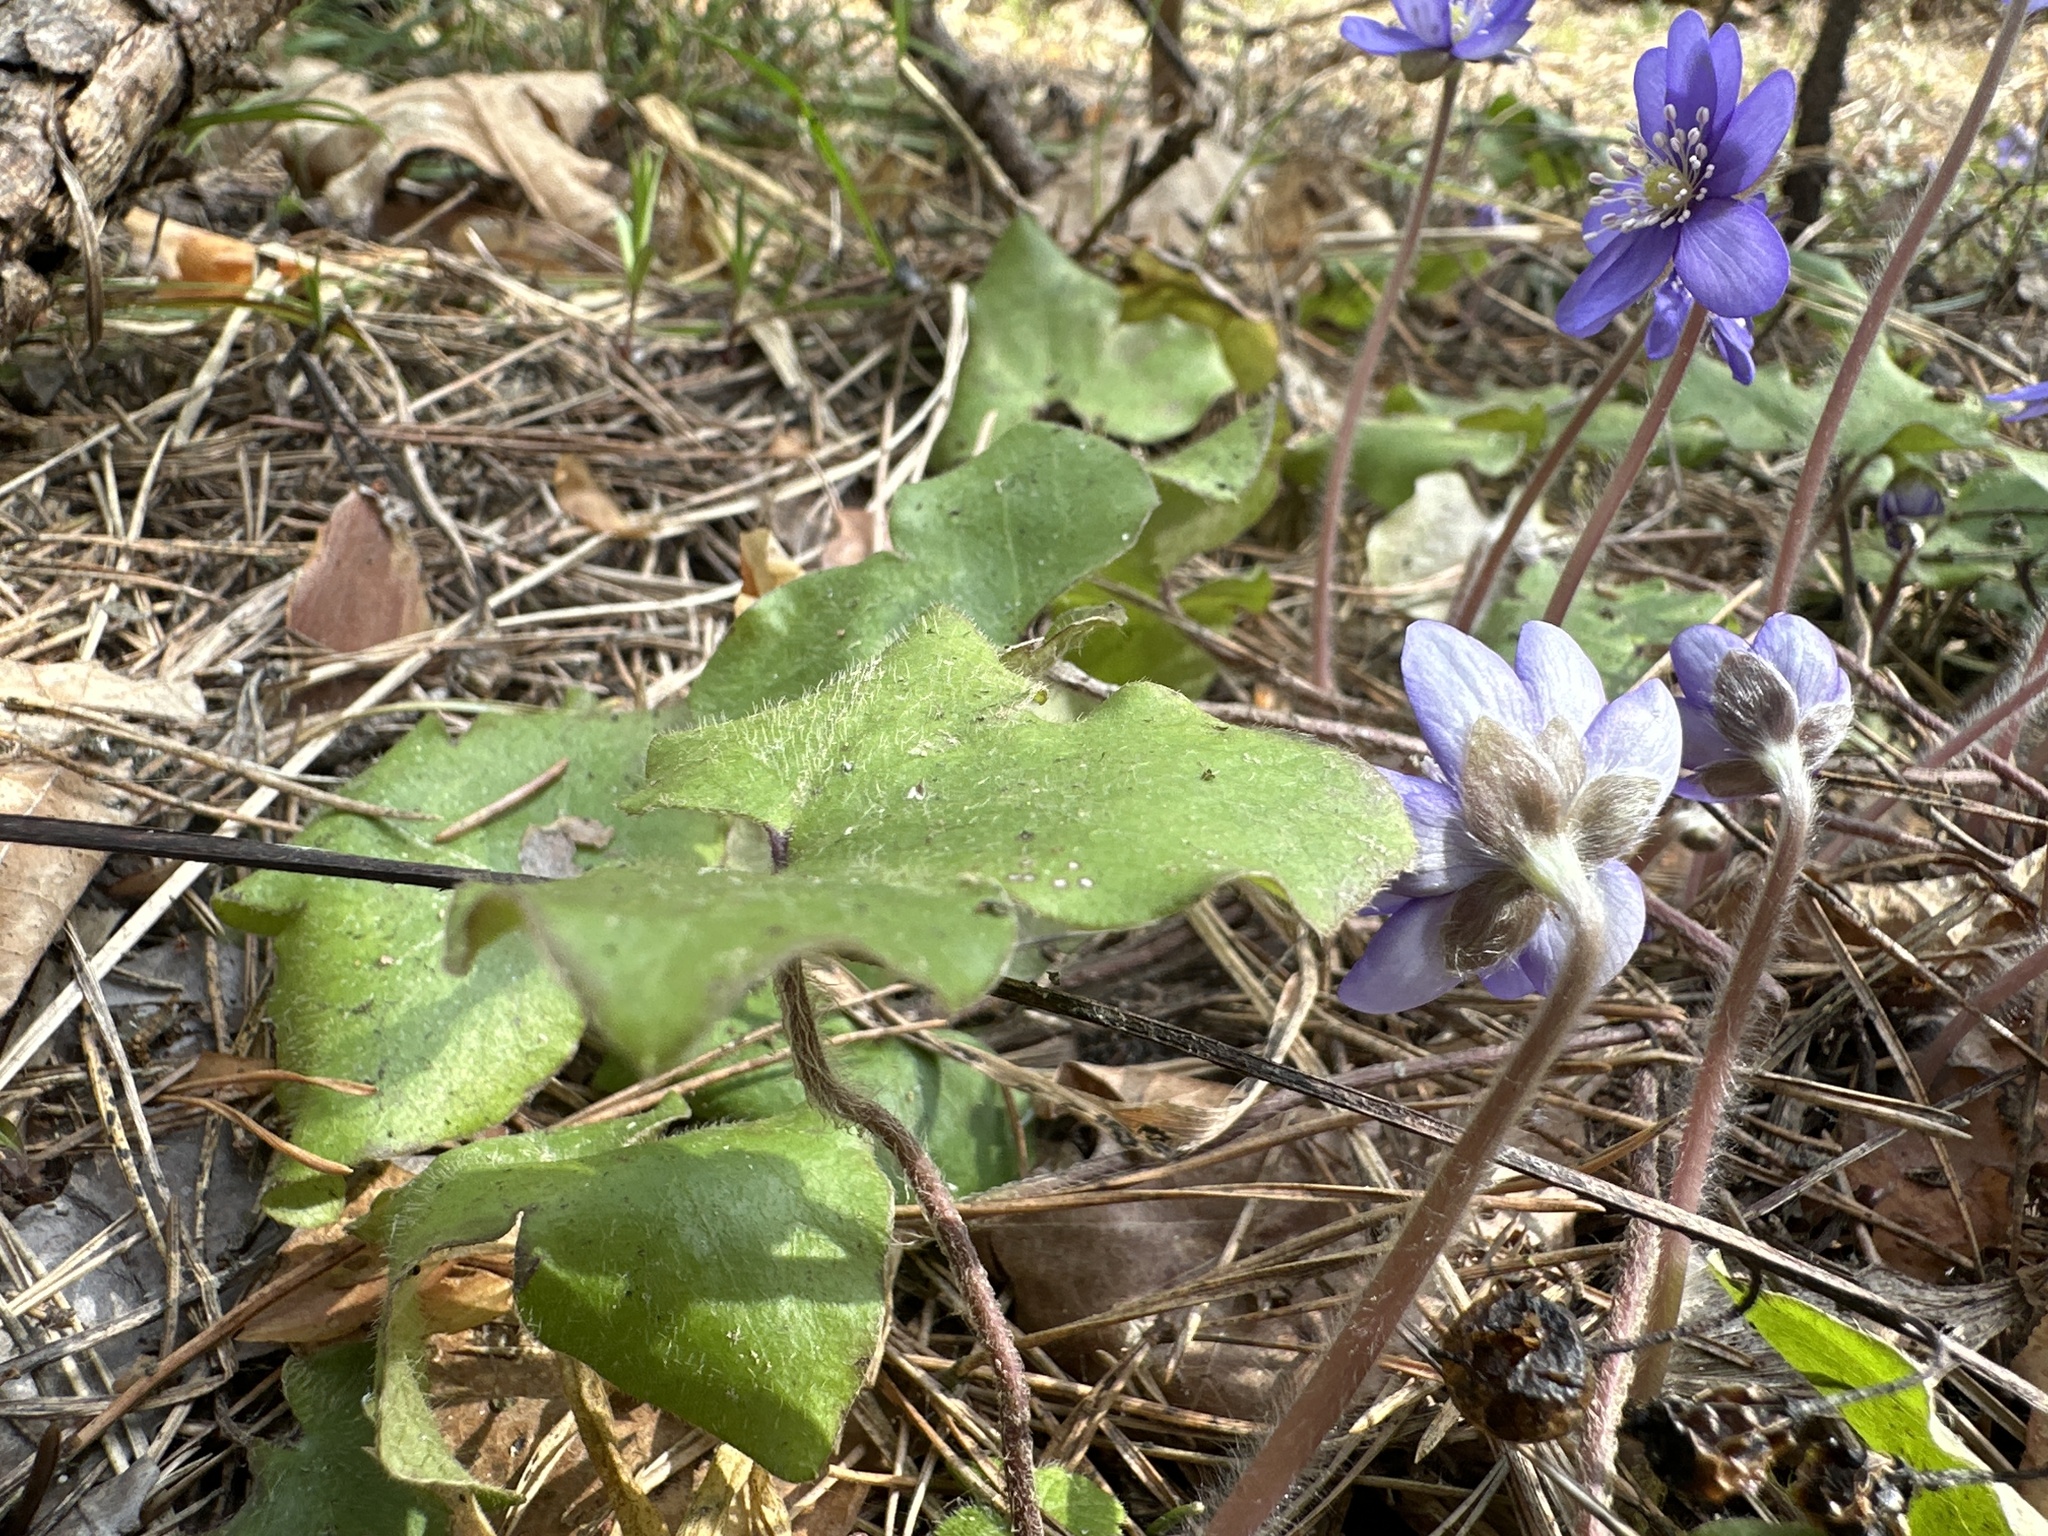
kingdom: Plantae
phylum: Tracheophyta
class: Magnoliopsida
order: Ranunculales
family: Ranunculaceae
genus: Hepatica
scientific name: Hepatica nobilis
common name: Liverleaf
